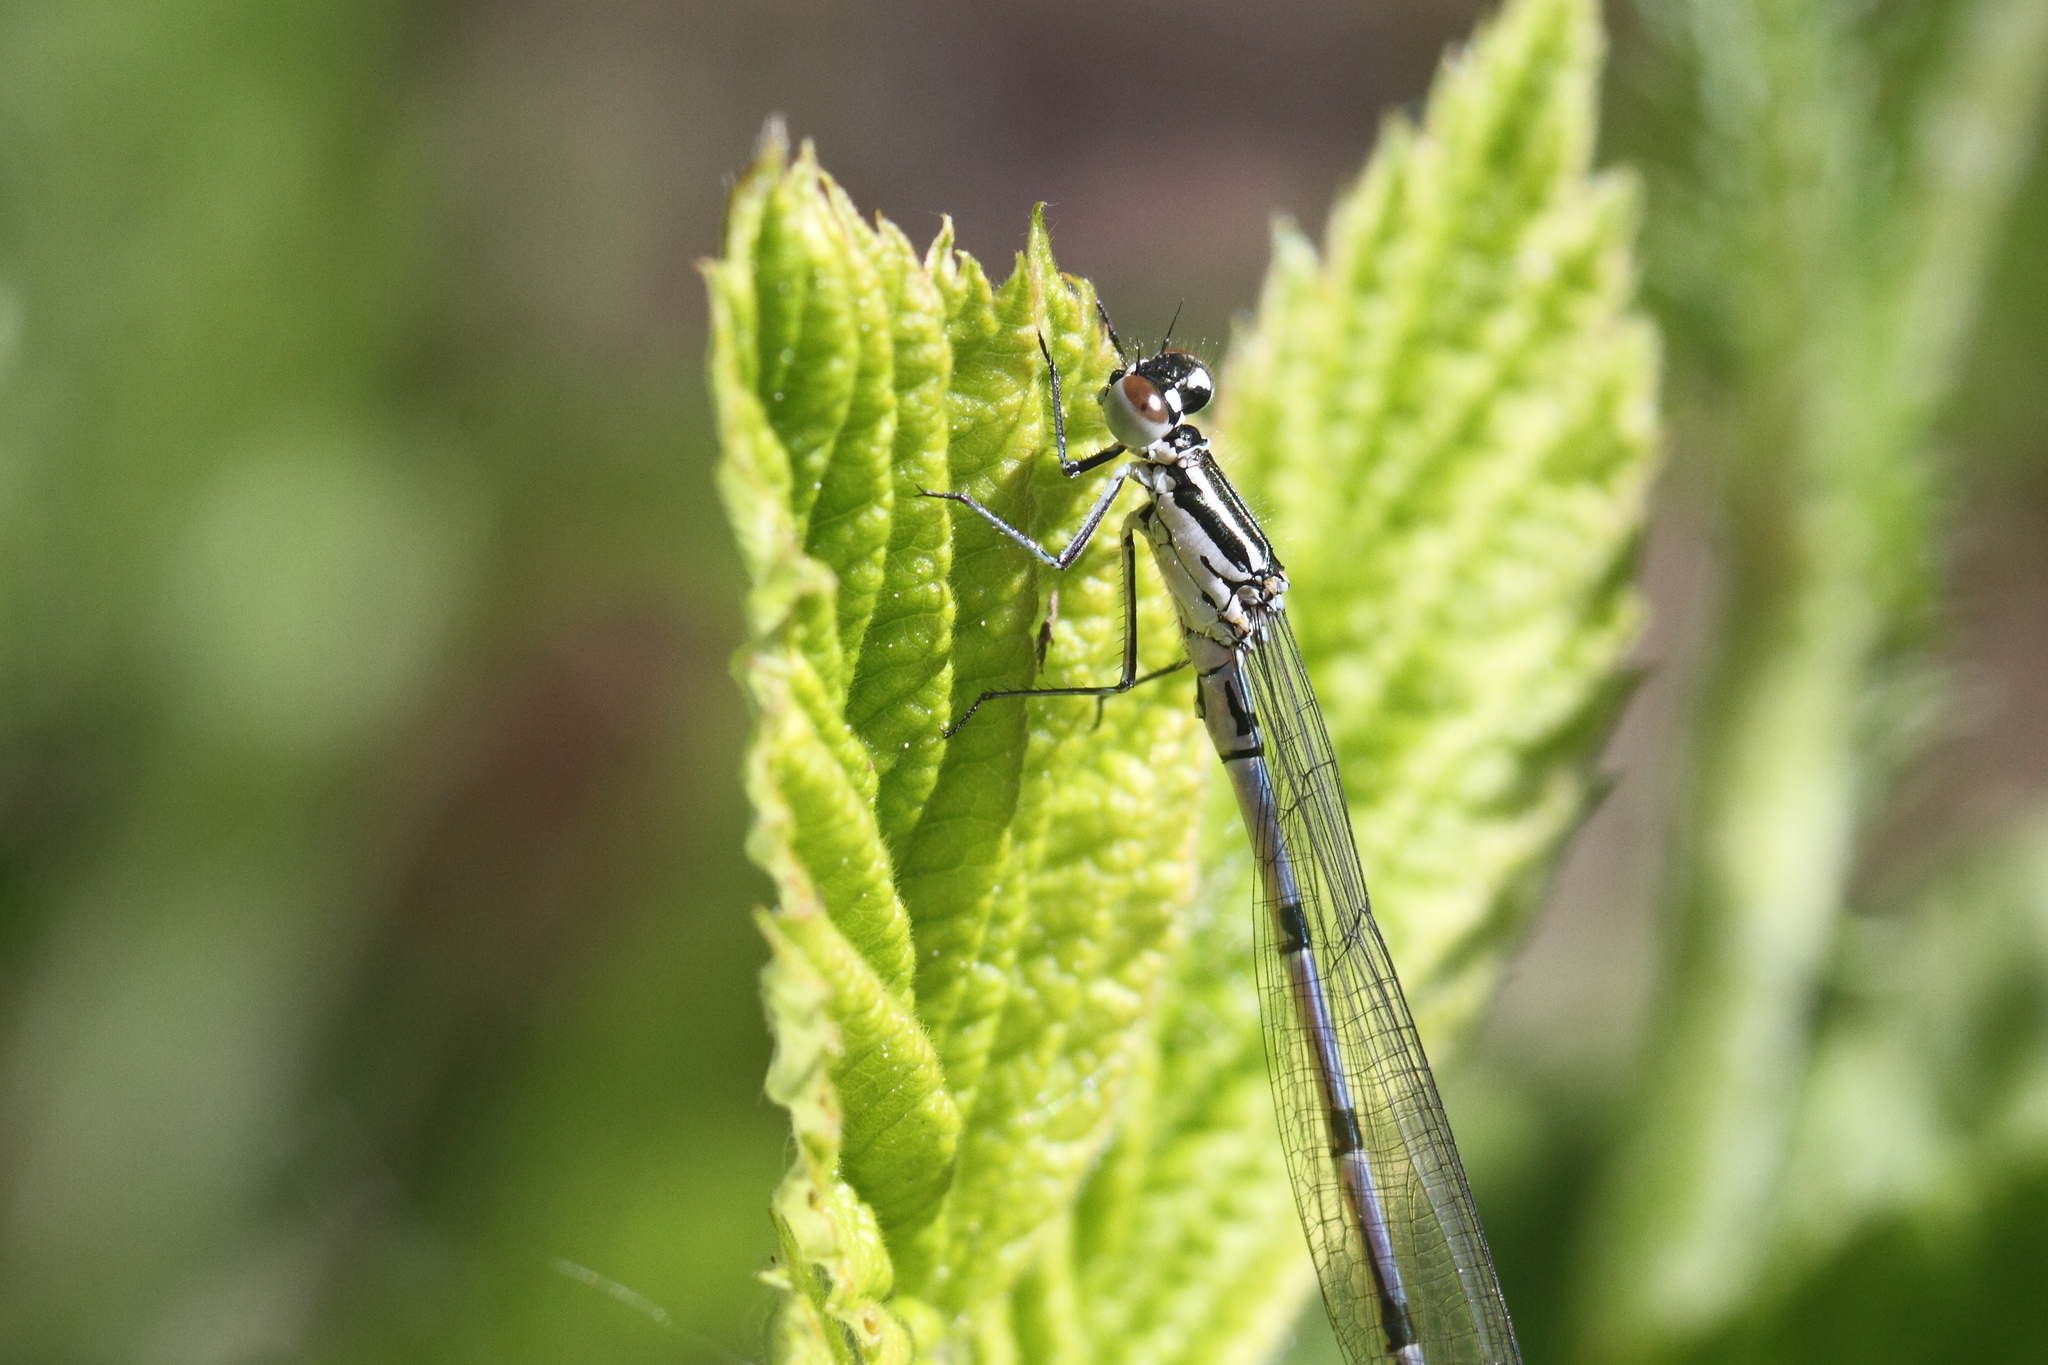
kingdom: Animalia
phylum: Arthropoda
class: Insecta
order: Odonata
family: Coenagrionidae
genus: Coenagrion
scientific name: Coenagrion puella
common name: Azure damselfly
